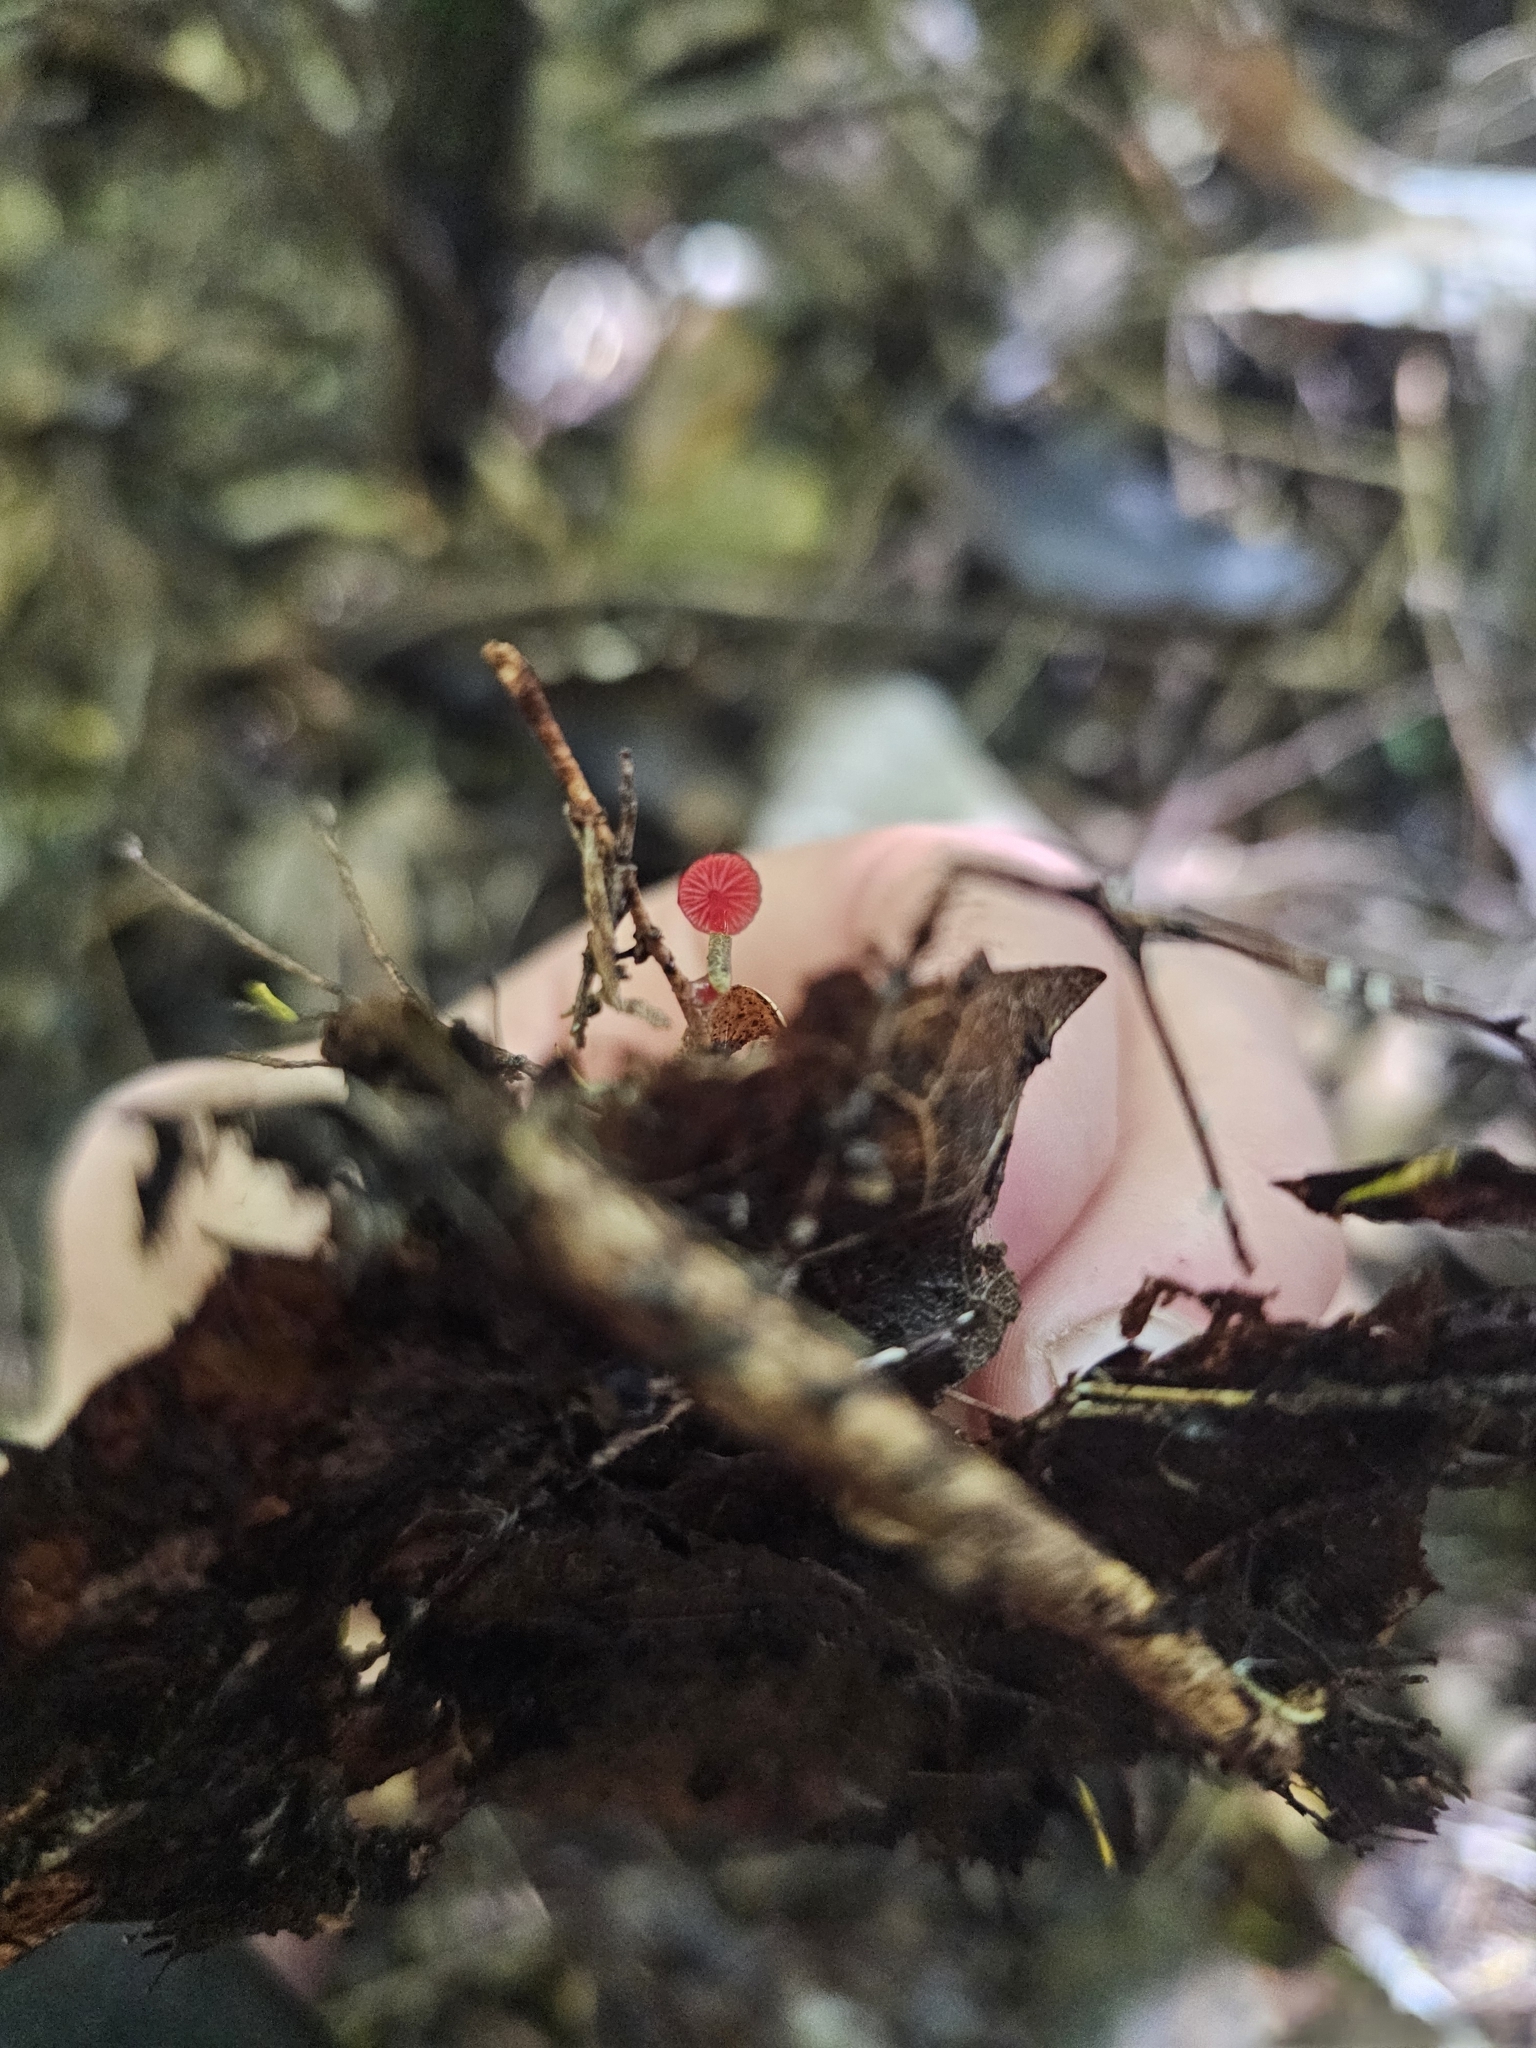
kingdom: Fungi
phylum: Basidiomycota
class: Agaricomycetes
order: Agaricales
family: Mycenaceae
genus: Cruentomycena
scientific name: Cruentomycena viscidocruenta
